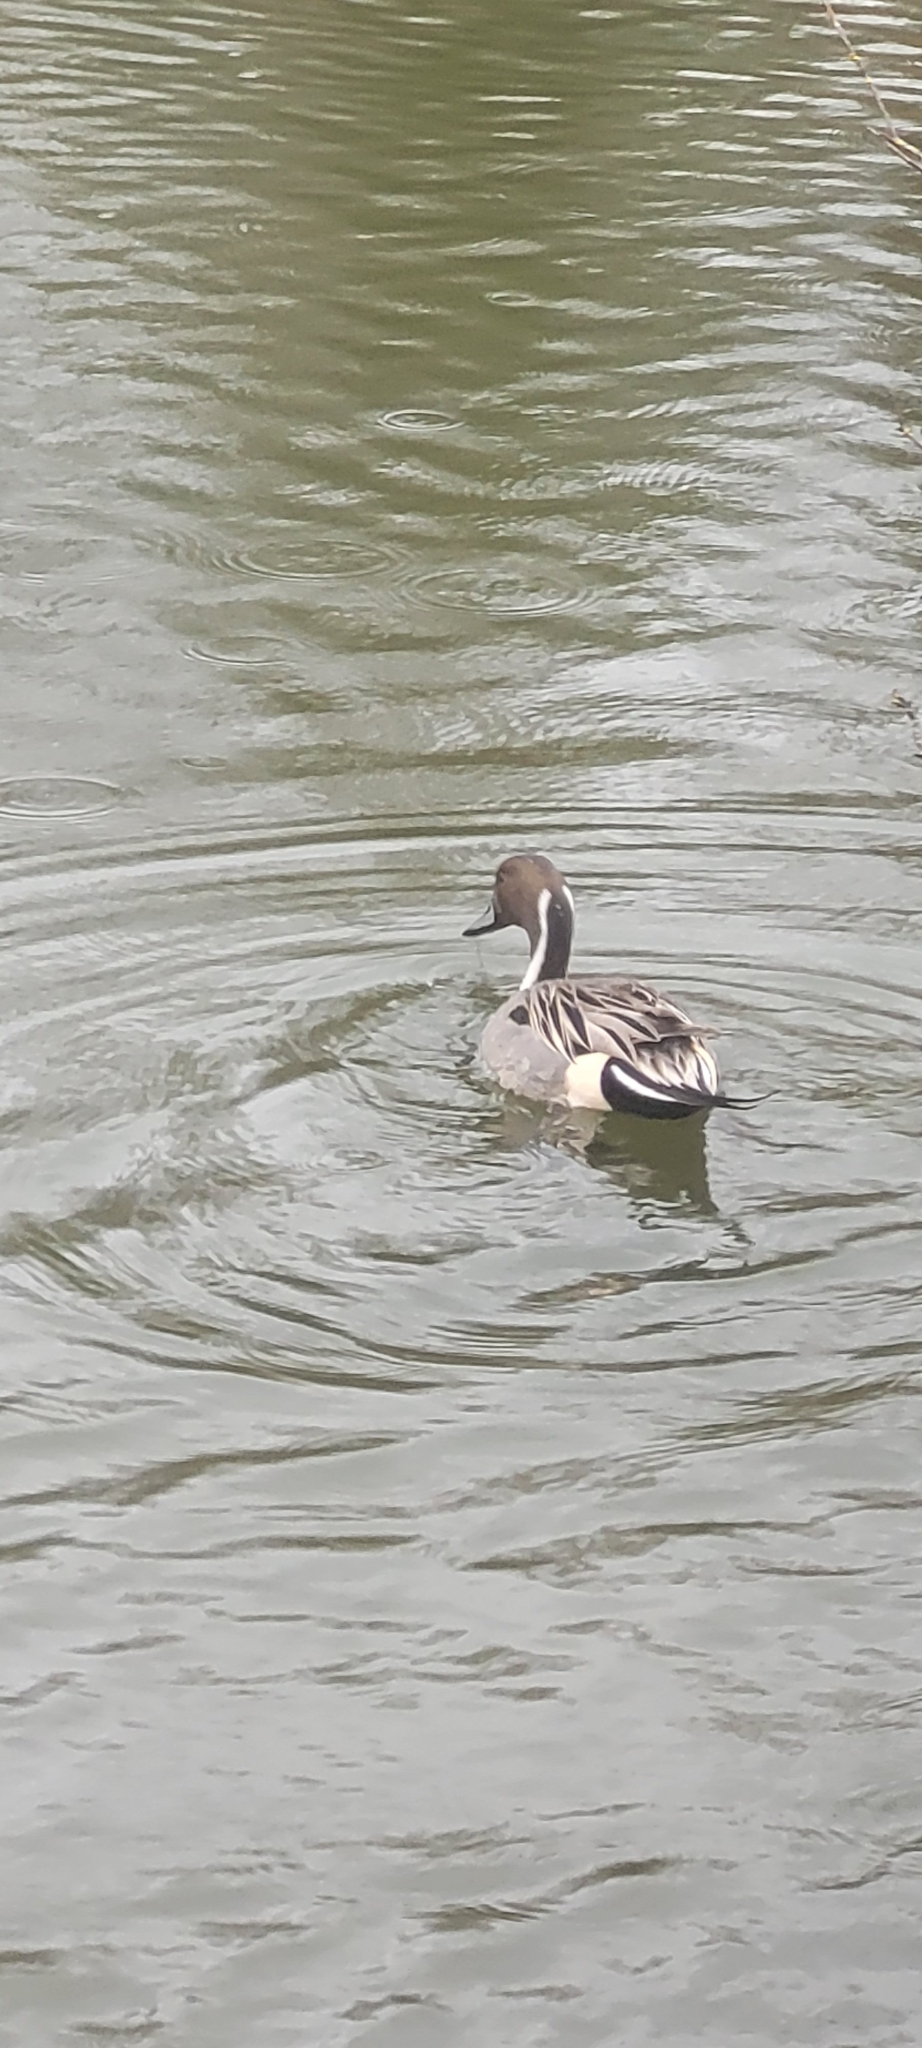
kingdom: Animalia
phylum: Chordata
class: Aves
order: Anseriformes
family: Anatidae
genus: Anas
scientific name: Anas acuta
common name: Northern pintail
